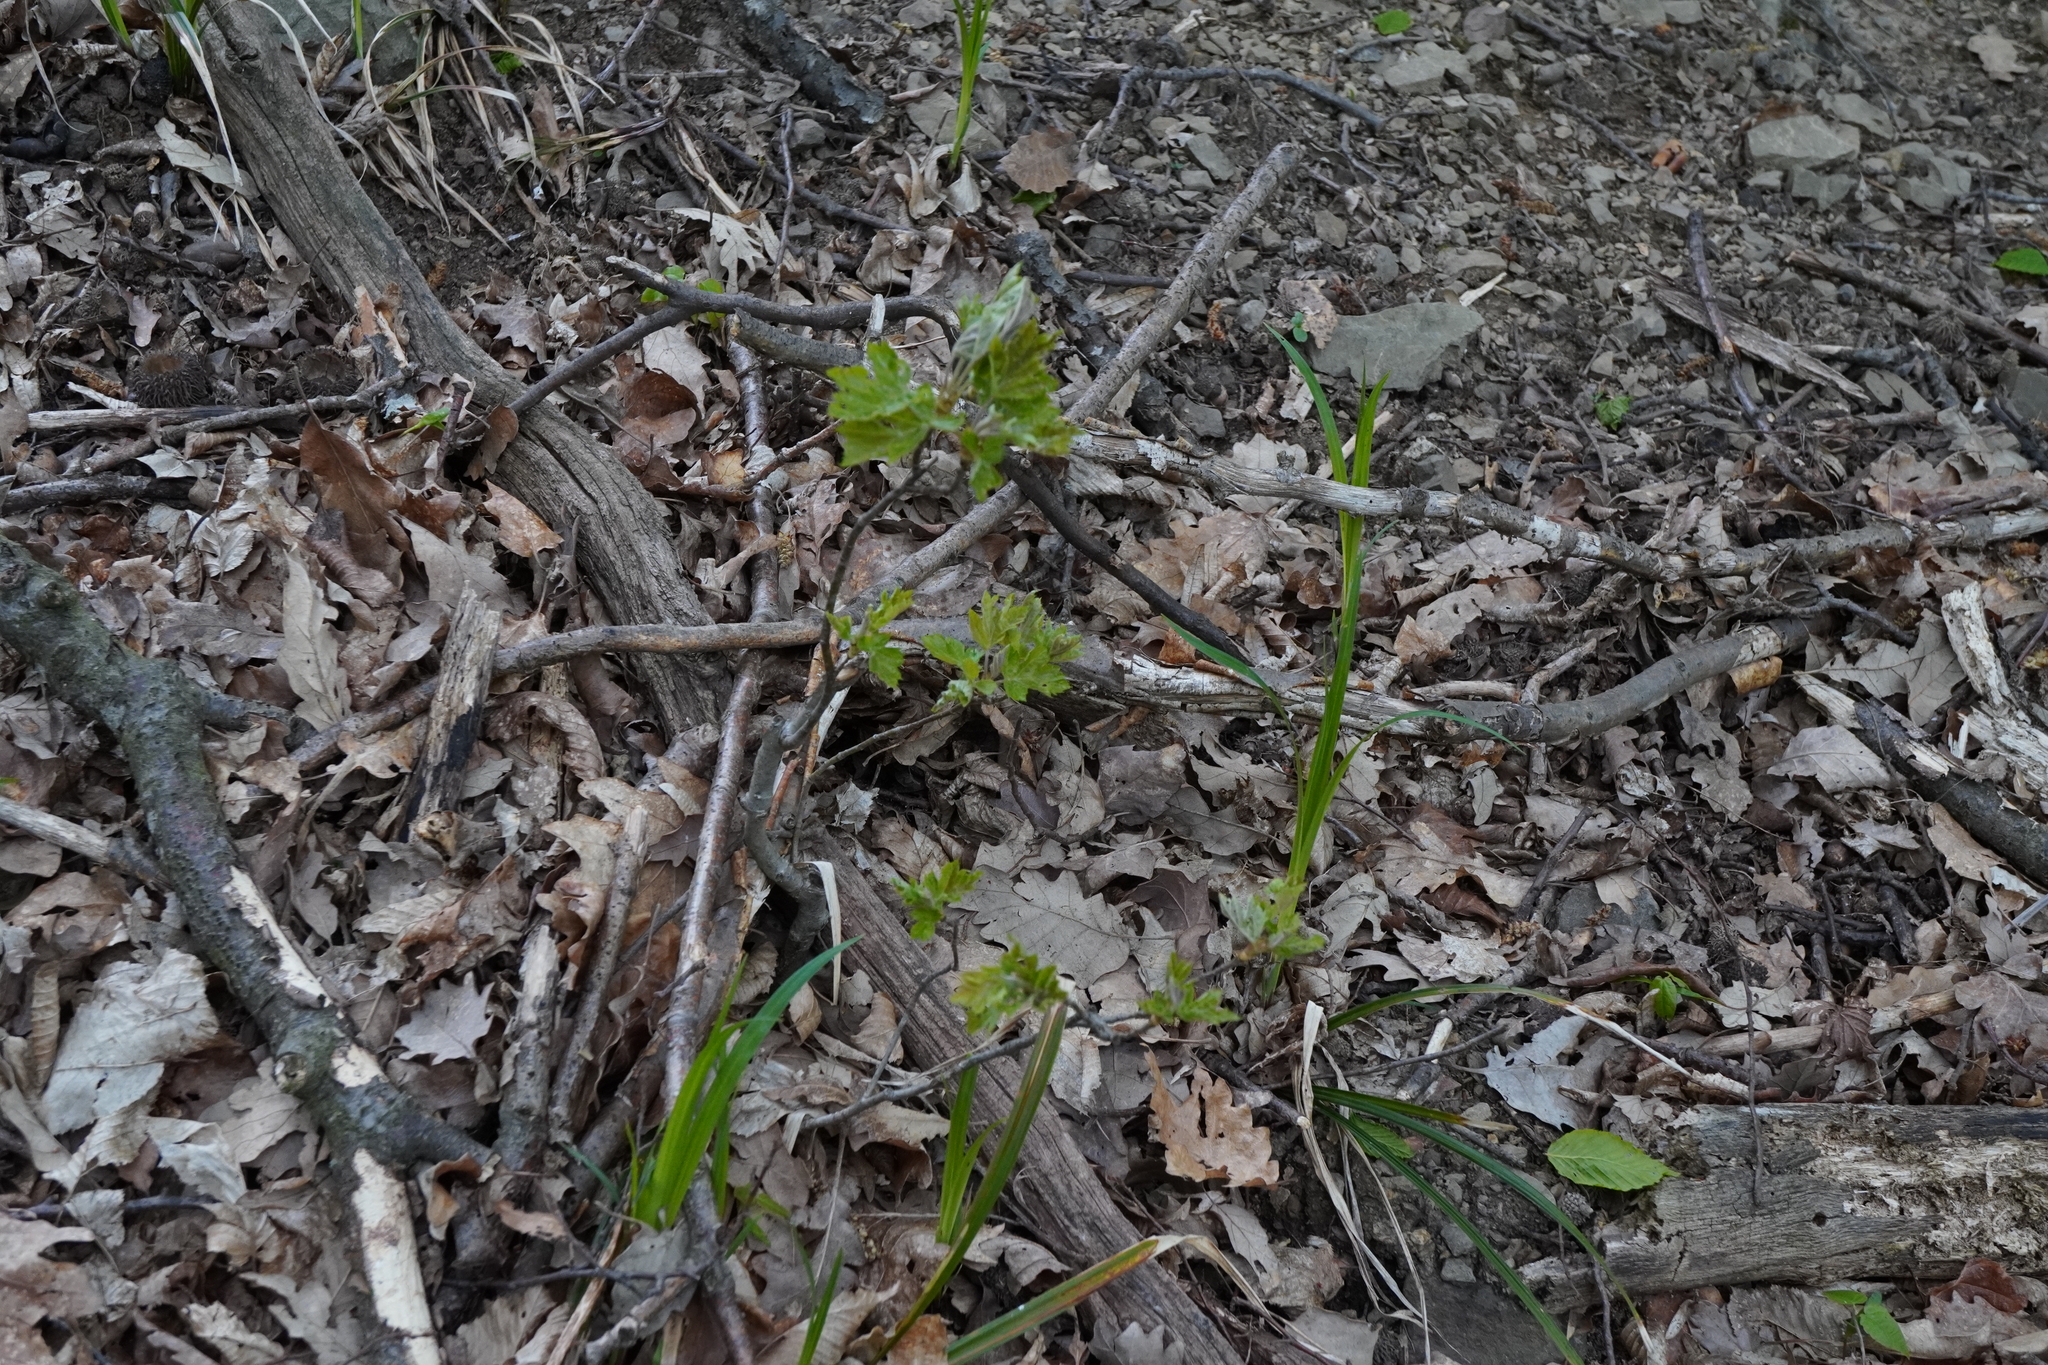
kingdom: Plantae
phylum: Tracheophyta
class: Magnoliopsida
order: Rosales
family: Rosaceae
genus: Torminalis
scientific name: Torminalis glaberrima
